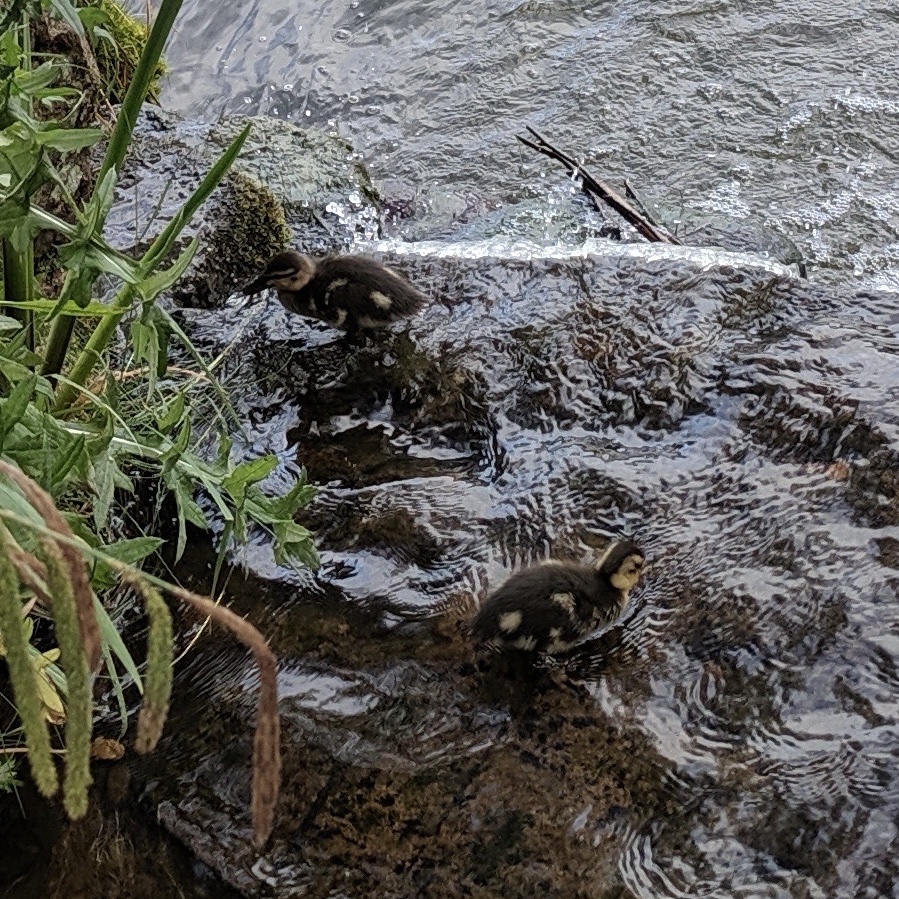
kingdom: Animalia
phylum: Chordata
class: Aves
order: Anseriformes
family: Anatidae
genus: Anas
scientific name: Anas platyrhynchos
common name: Mallard
